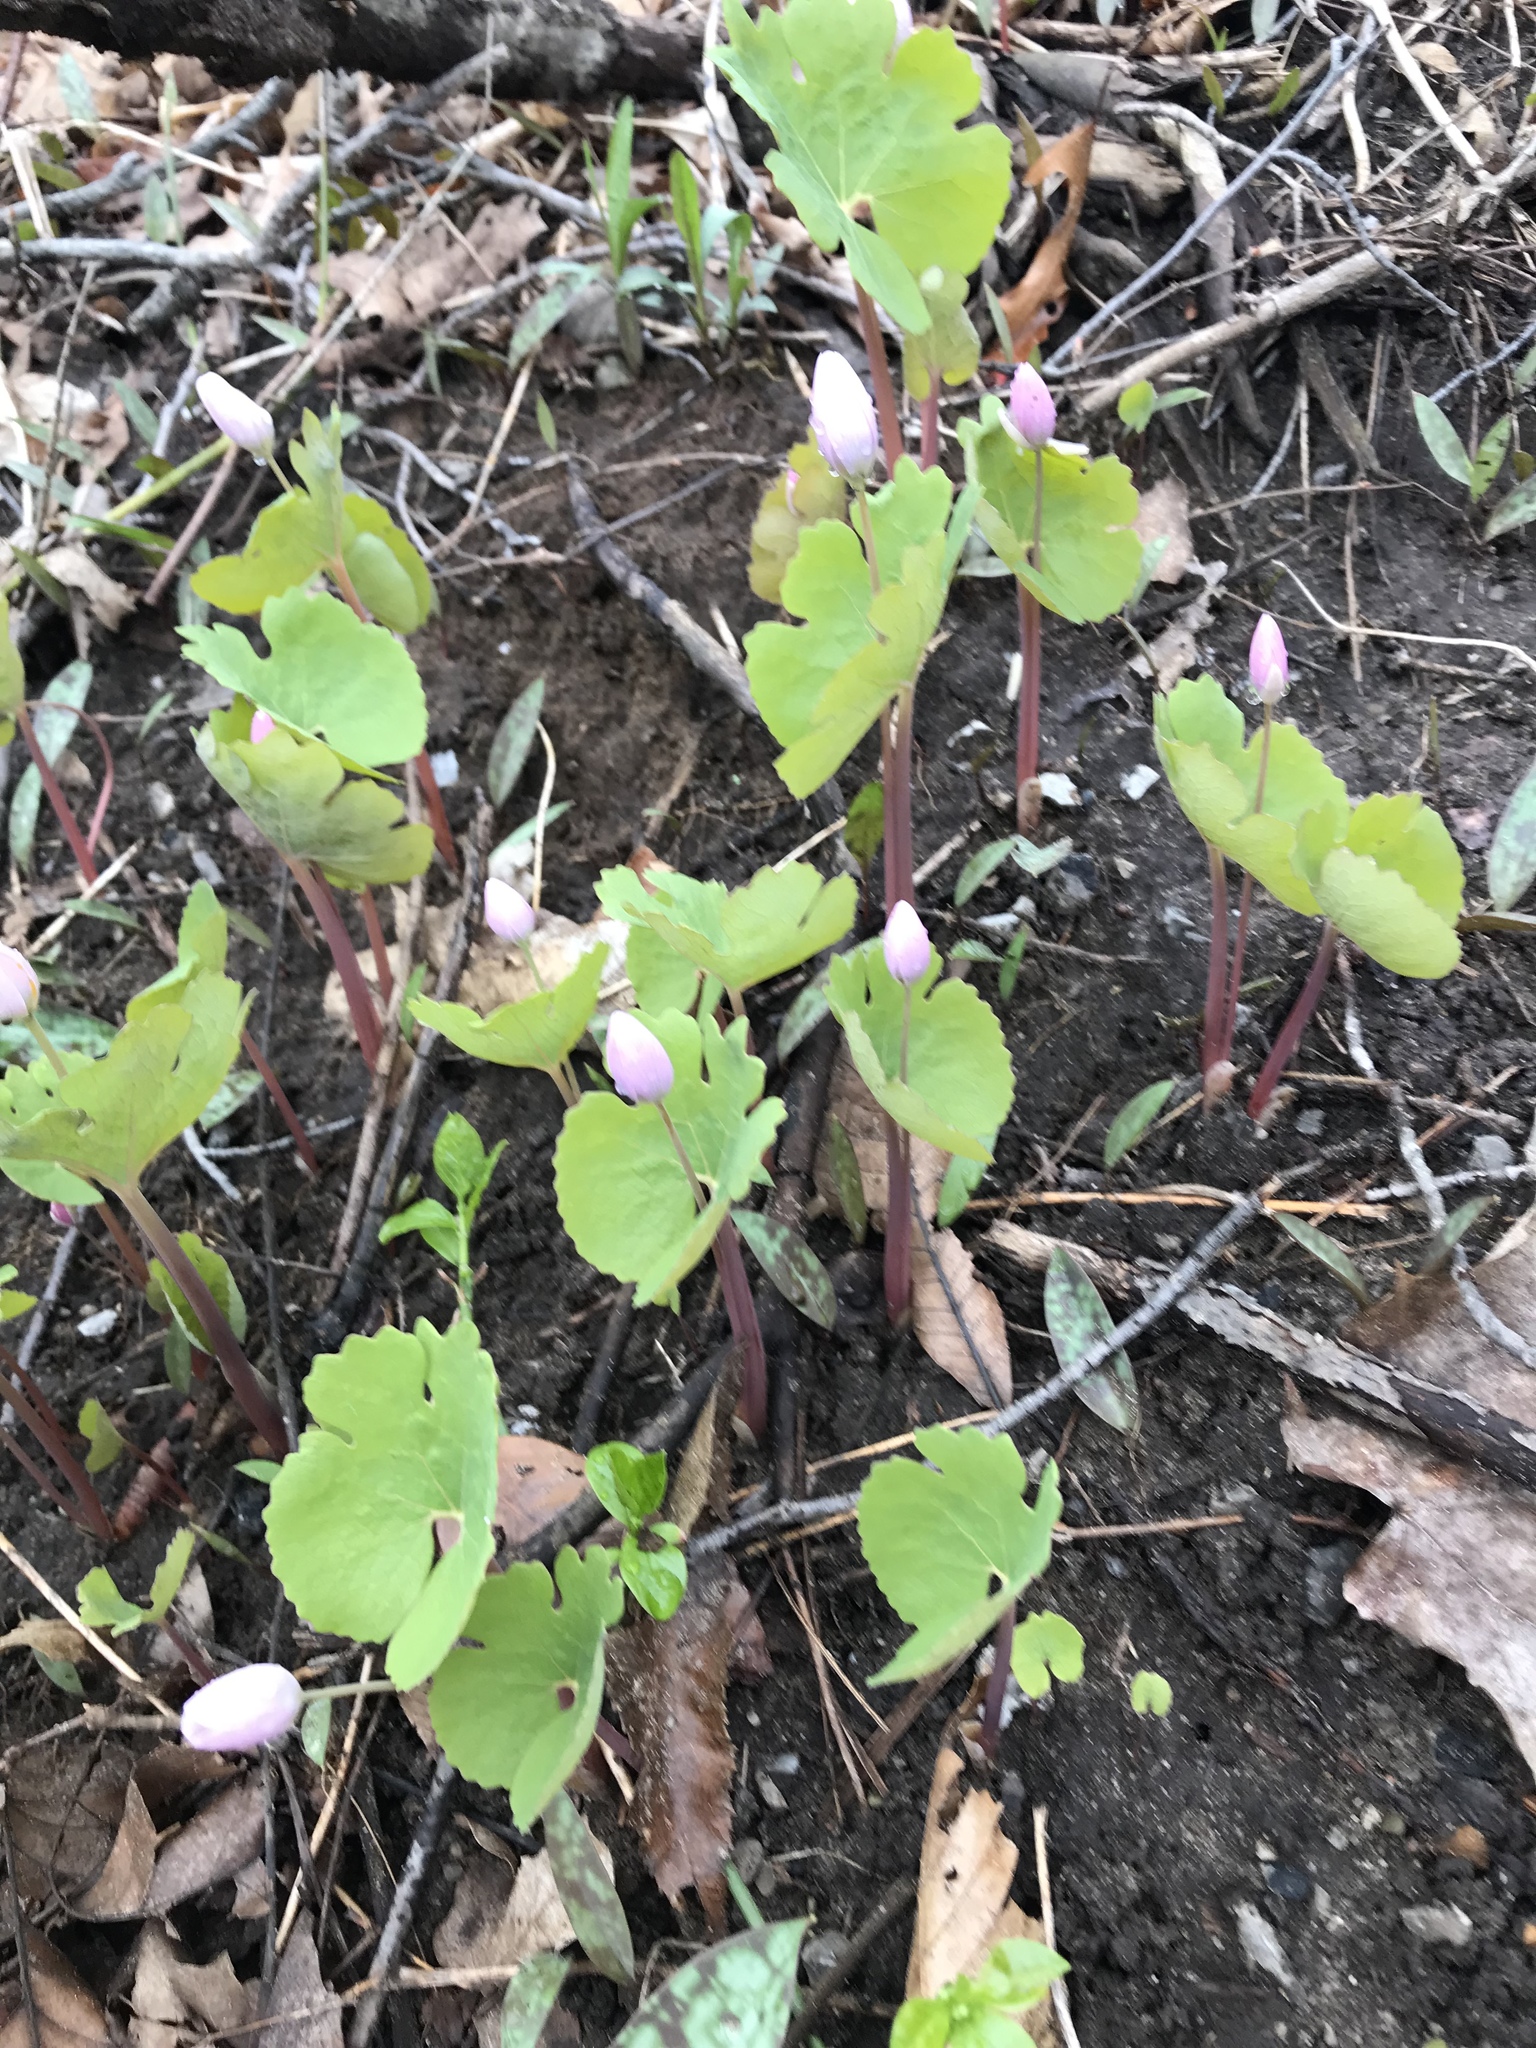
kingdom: Plantae
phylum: Tracheophyta
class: Magnoliopsida
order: Ranunculales
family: Papaveraceae
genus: Sanguinaria
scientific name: Sanguinaria canadensis
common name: Bloodroot
